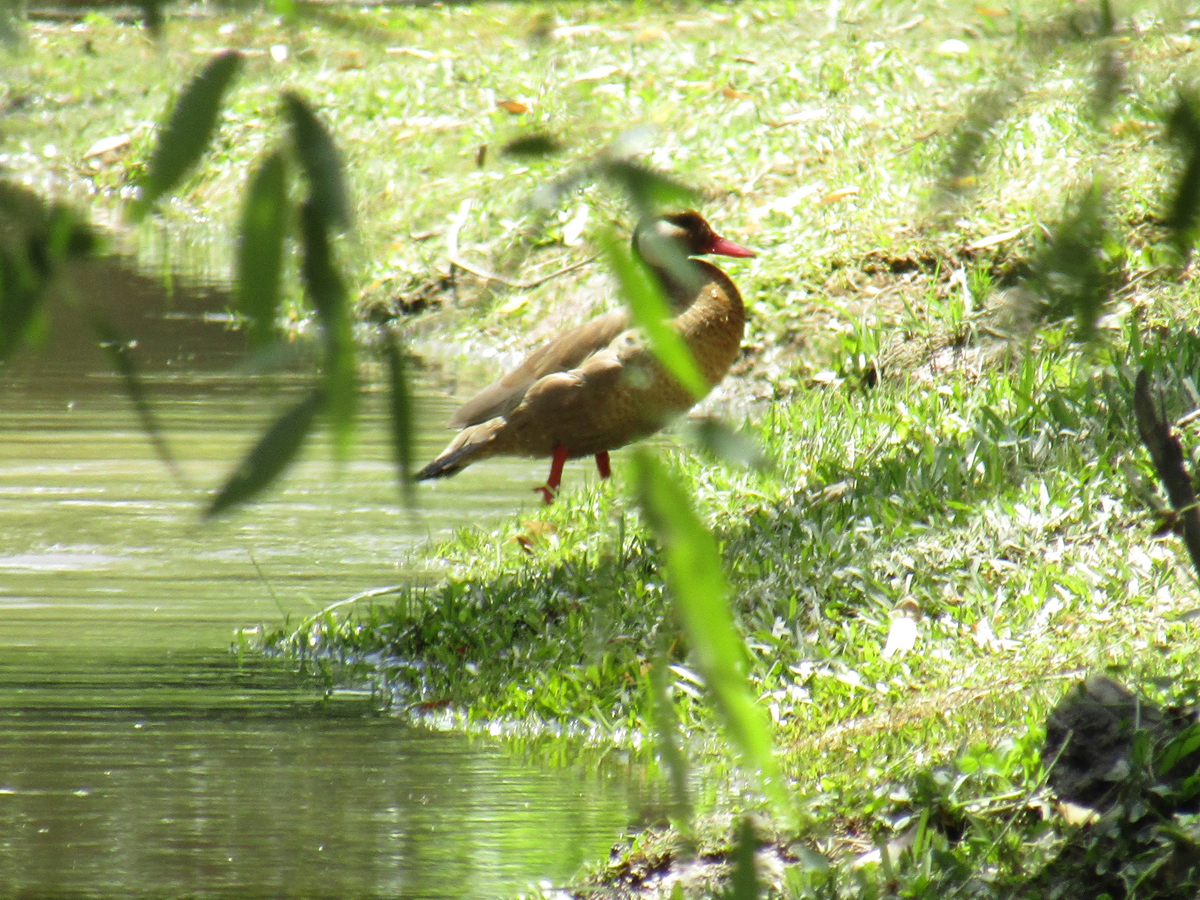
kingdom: Animalia
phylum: Chordata
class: Aves
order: Anseriformes
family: Anatidae
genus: Amazonetta
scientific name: Amazonetta brasiliensis
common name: Brazilian teal
